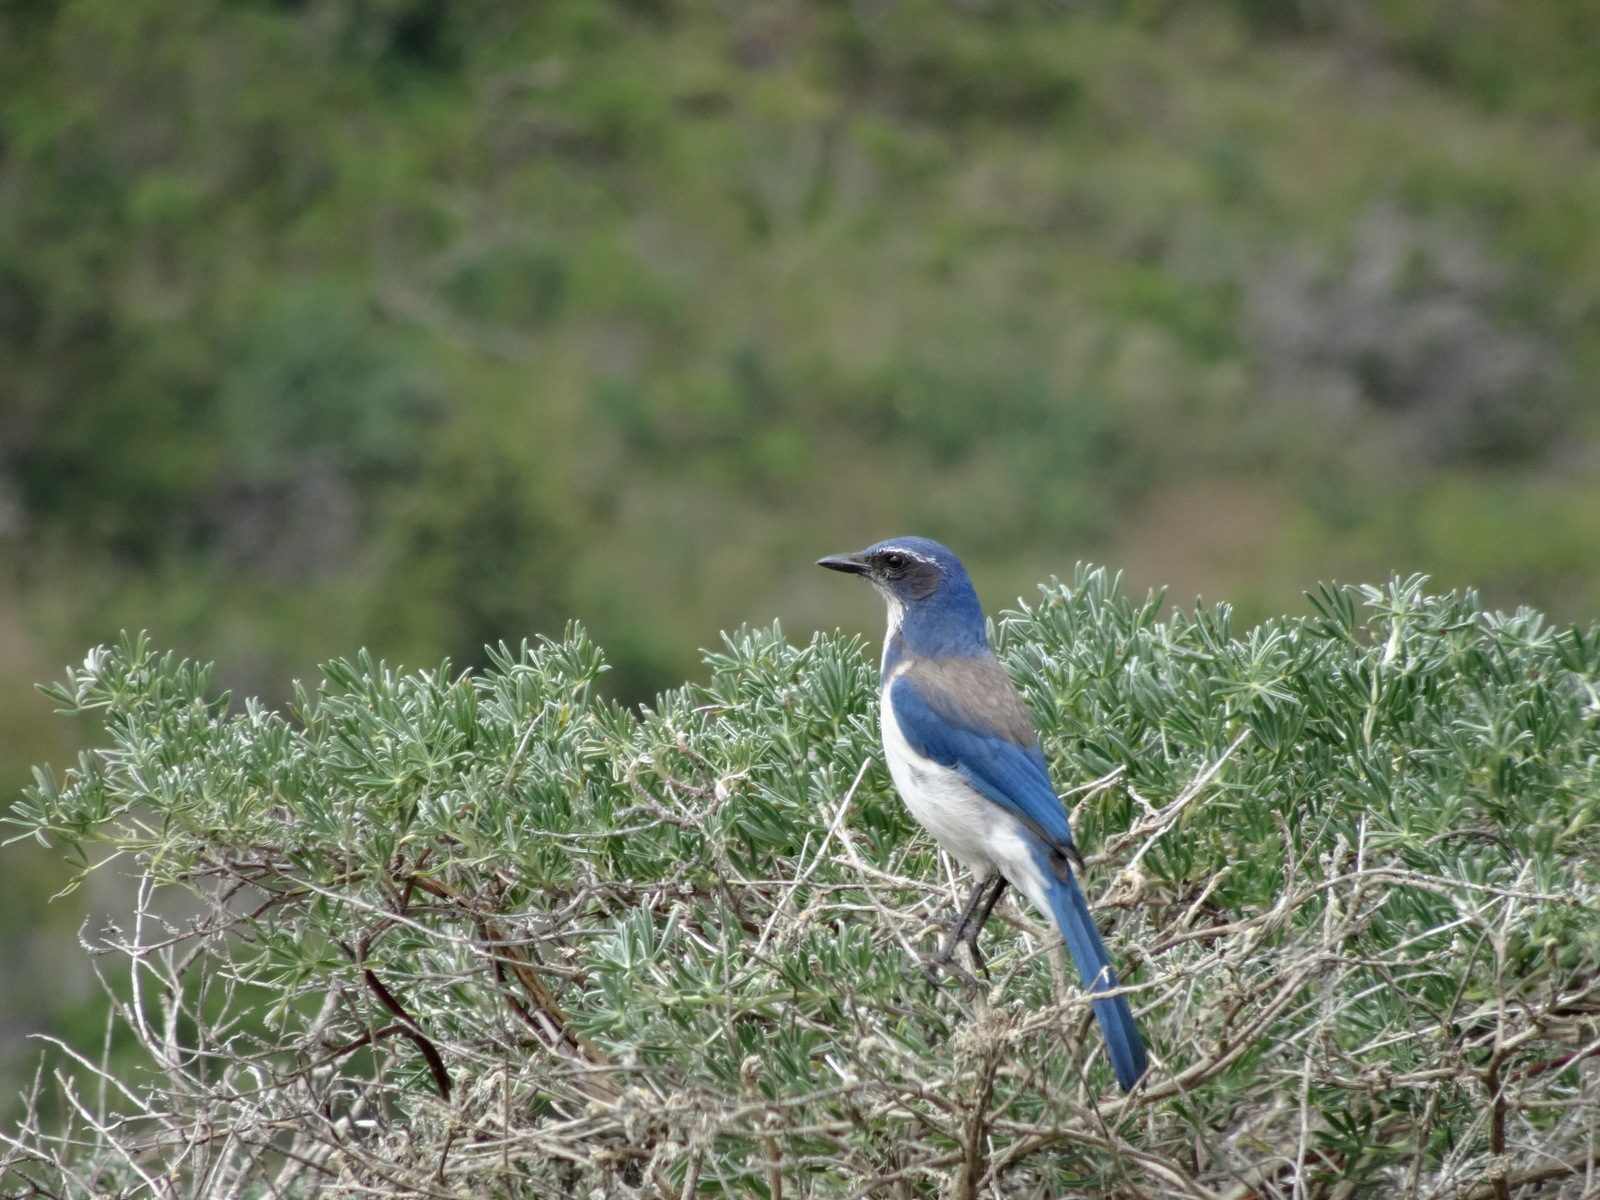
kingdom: Animalia
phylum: Chordata
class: Aves
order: Passeriformes
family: Corvidae
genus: Aphelocoma
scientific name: Aphelocoma californica
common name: California scrub-jay
